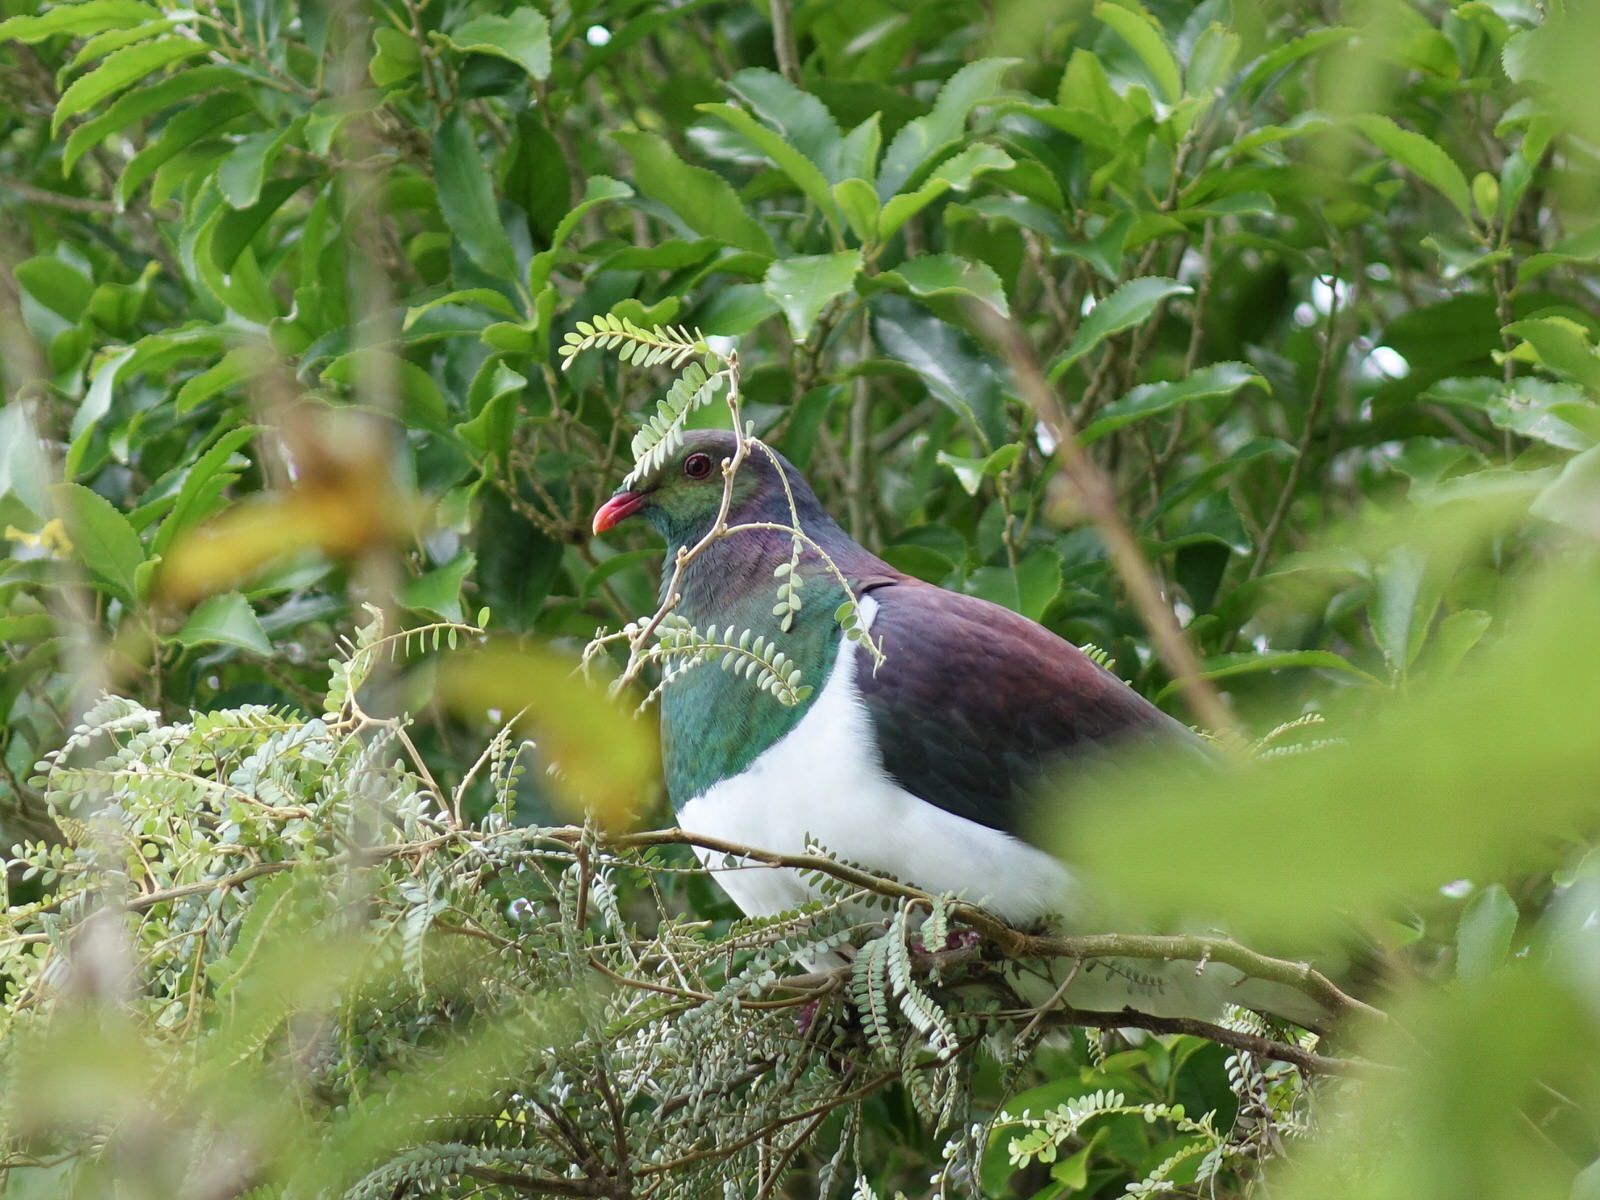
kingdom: Animalia
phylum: Chordata
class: Aves
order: Columbiformes
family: Columbidae
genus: Hemiphaga
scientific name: Hemiphaga novaeseelandiae
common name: New zealand pigeon
